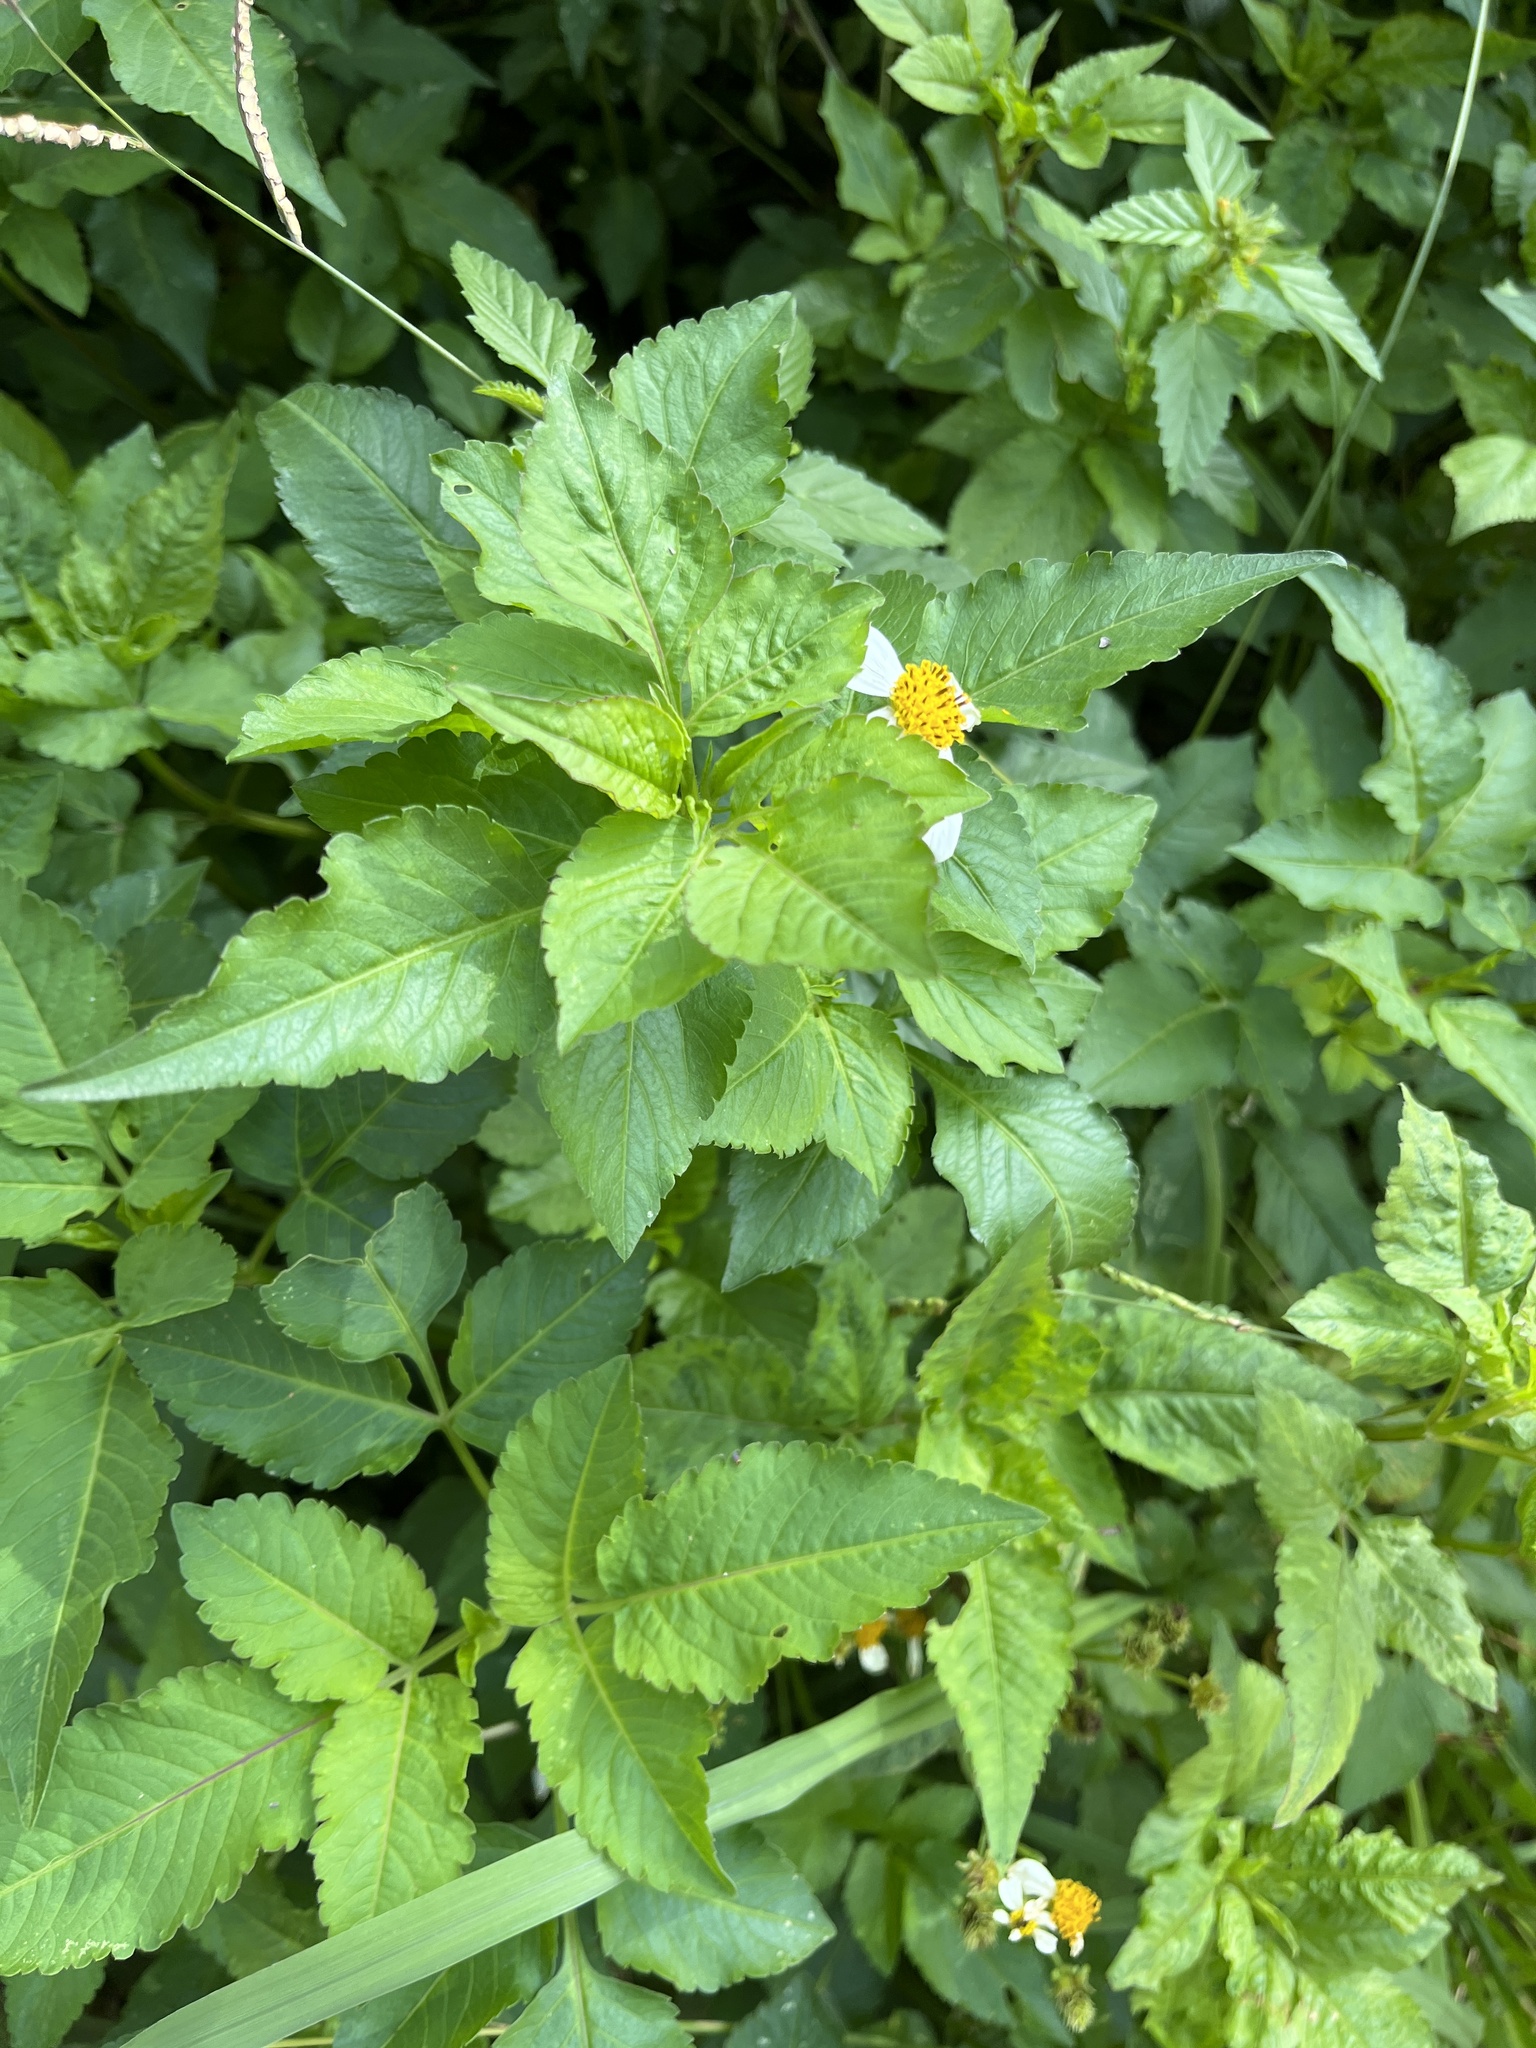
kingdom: Plantae
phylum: Tracheophyta
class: Magnoliopsida
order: Asterales
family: Asteraceae
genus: Bidens
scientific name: Bidens alba
